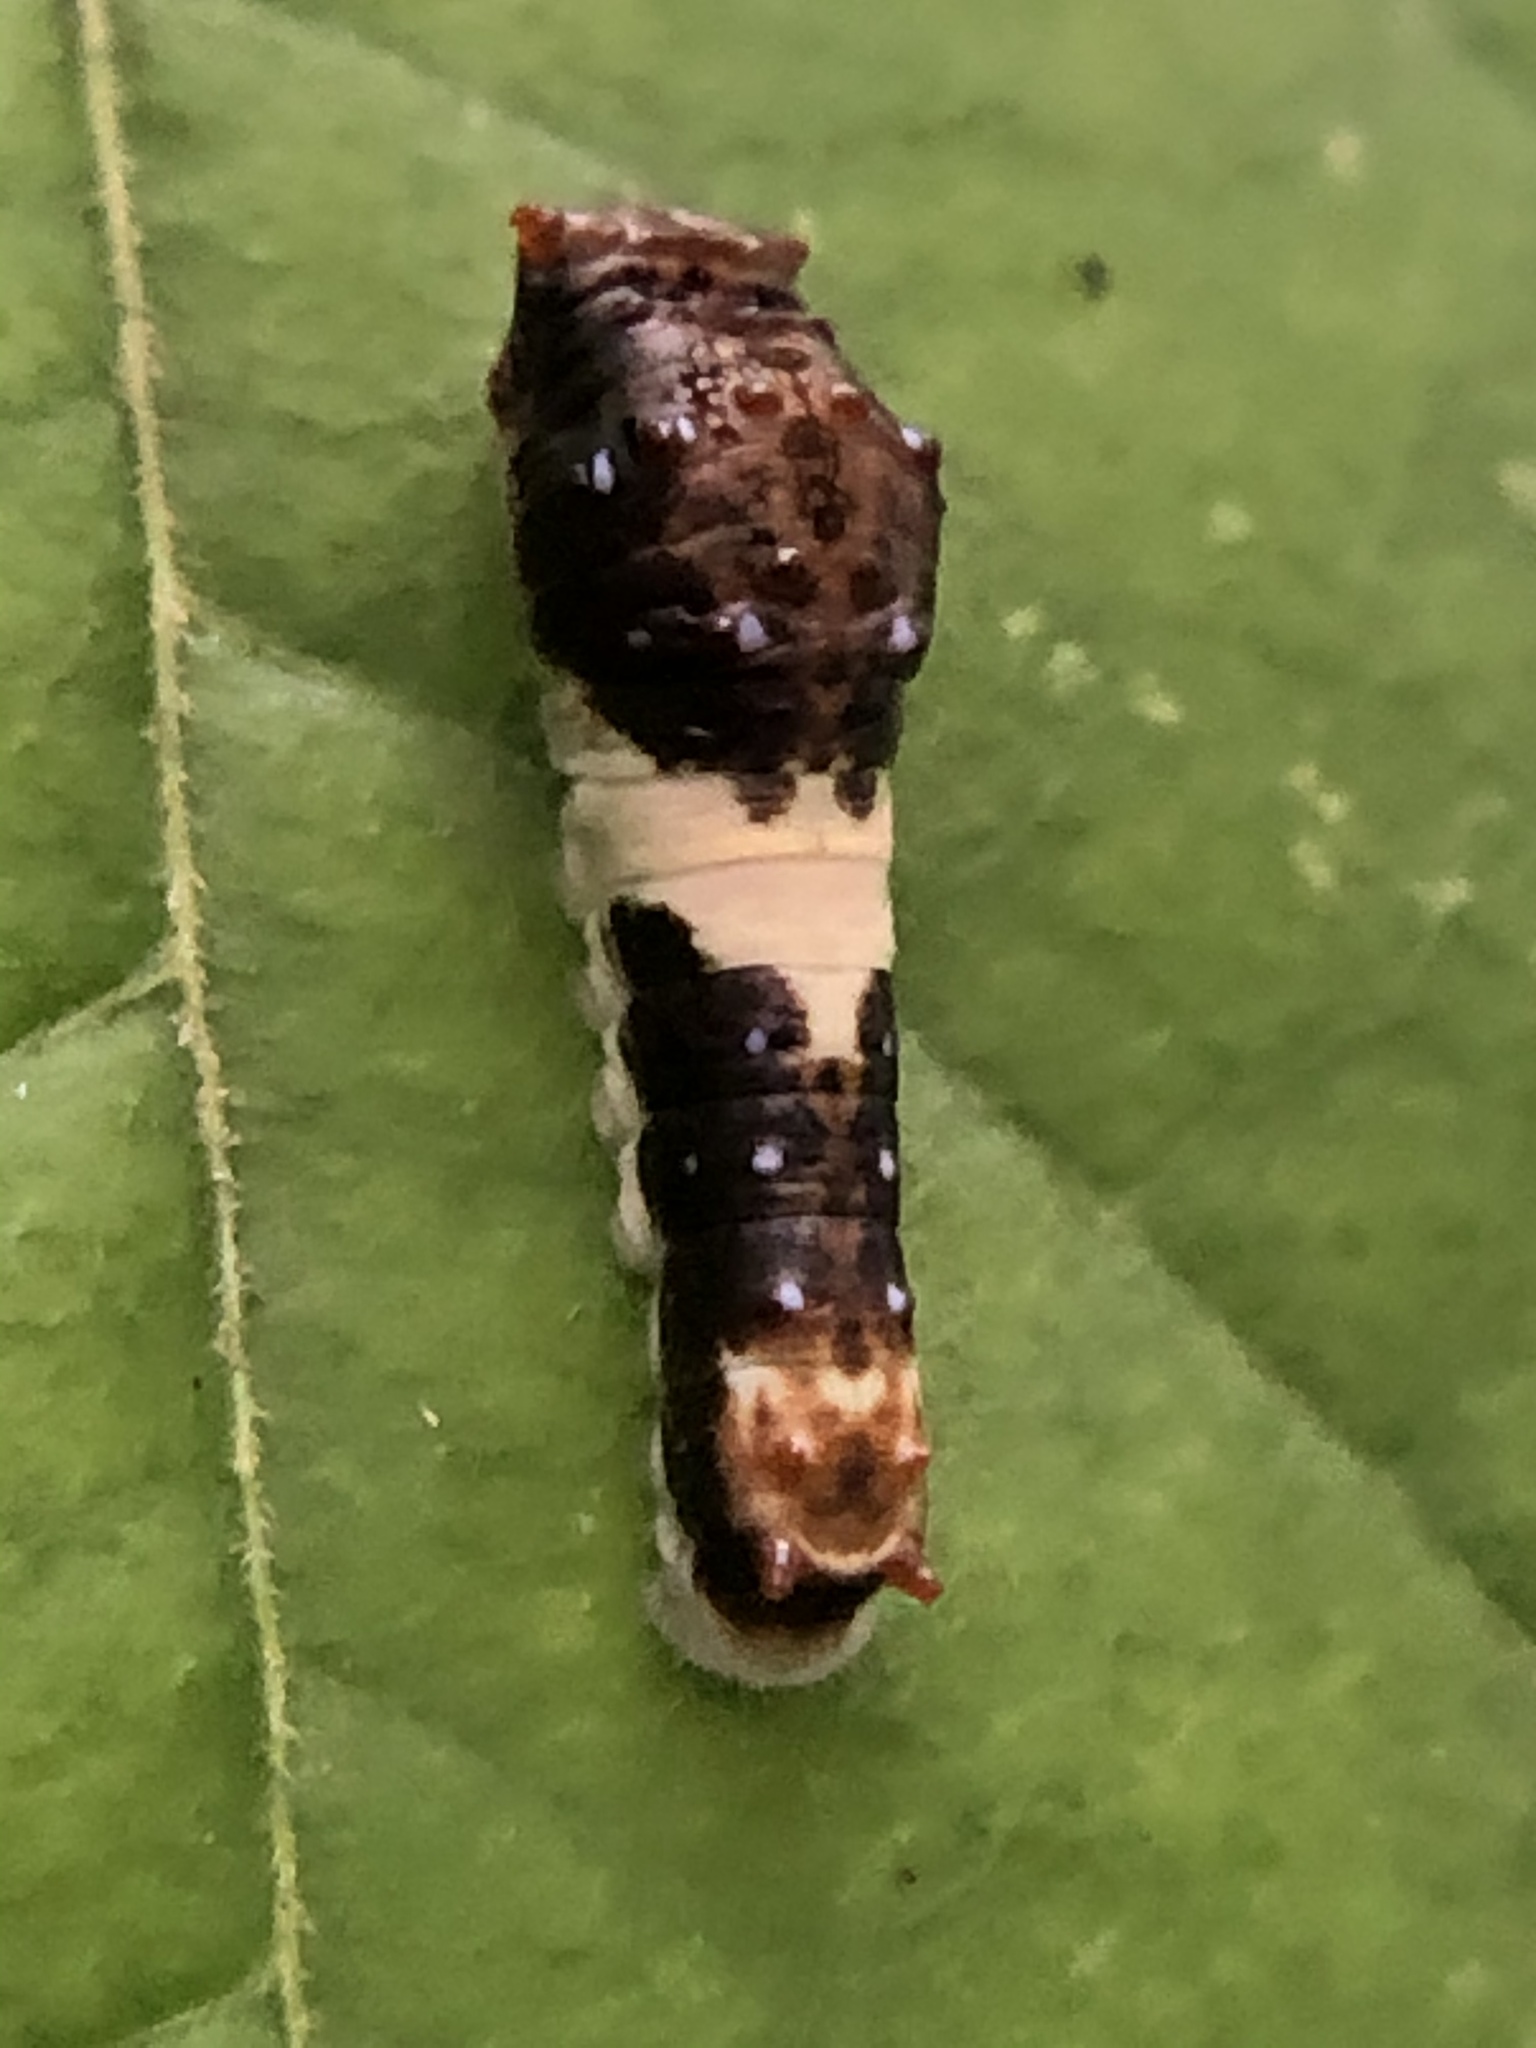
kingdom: Animalia
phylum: Arthropoda
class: Insecta
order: Lepidoptera
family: Papilionidae
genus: Papilio
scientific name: Papilio glaucus
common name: Tiger swallowtail
